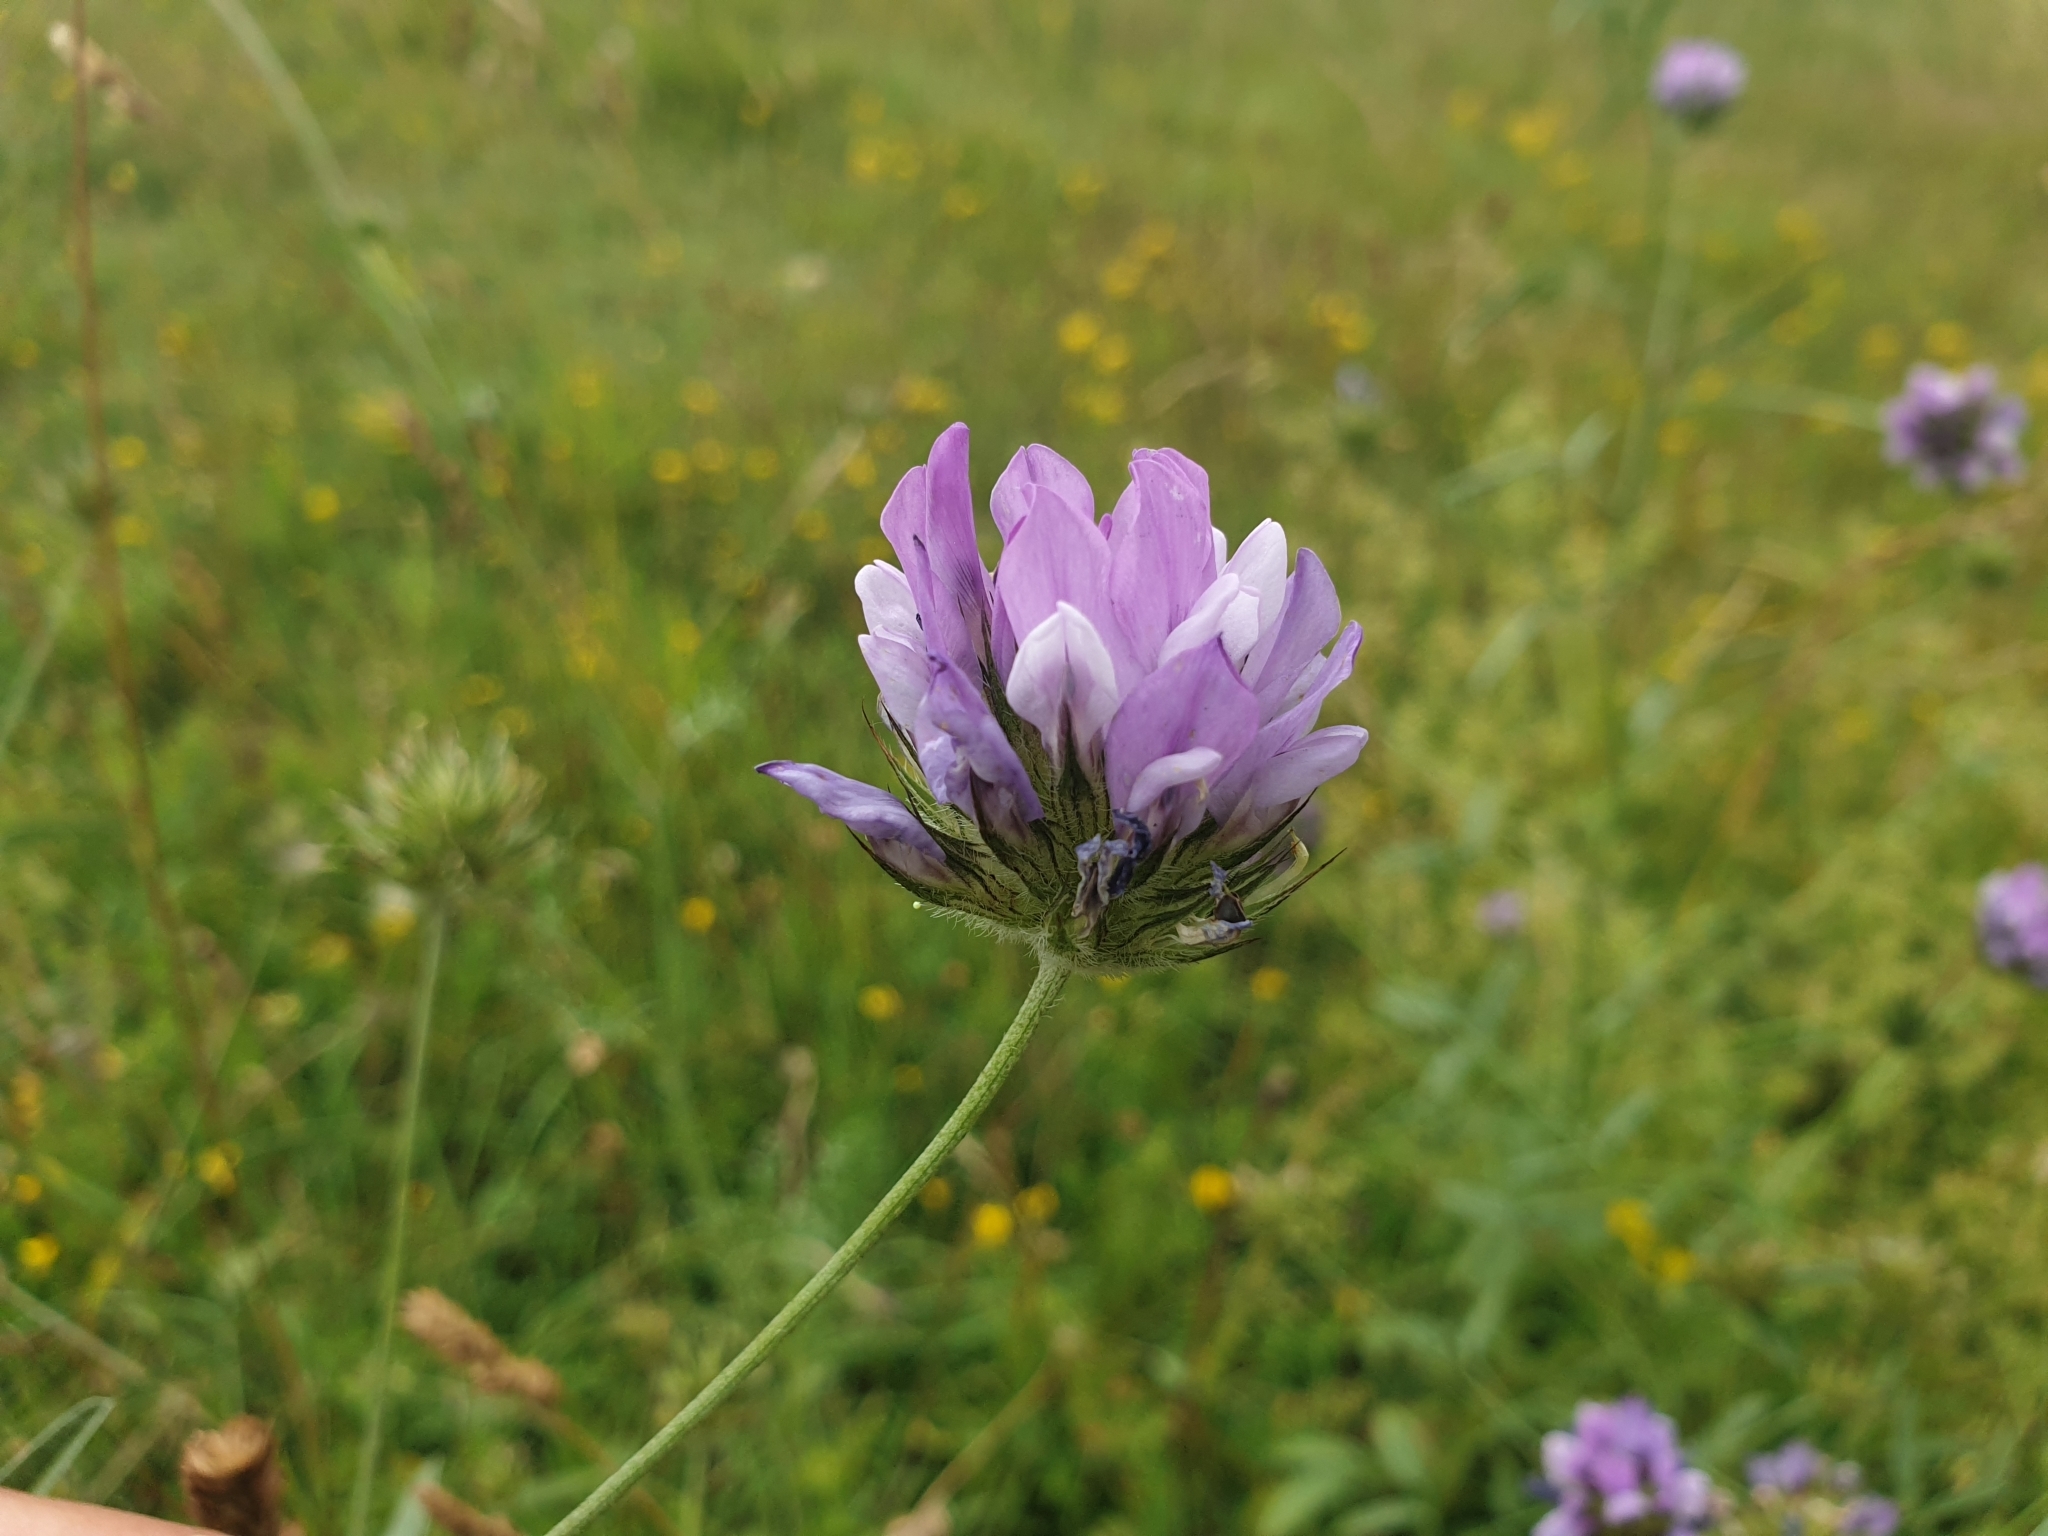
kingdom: Plantae
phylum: Tracheophyta
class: Magnoliopsida
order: Fabales
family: Fabaceae
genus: Bituminaria
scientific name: Bituminaria bituminosa
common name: Arabian pea
